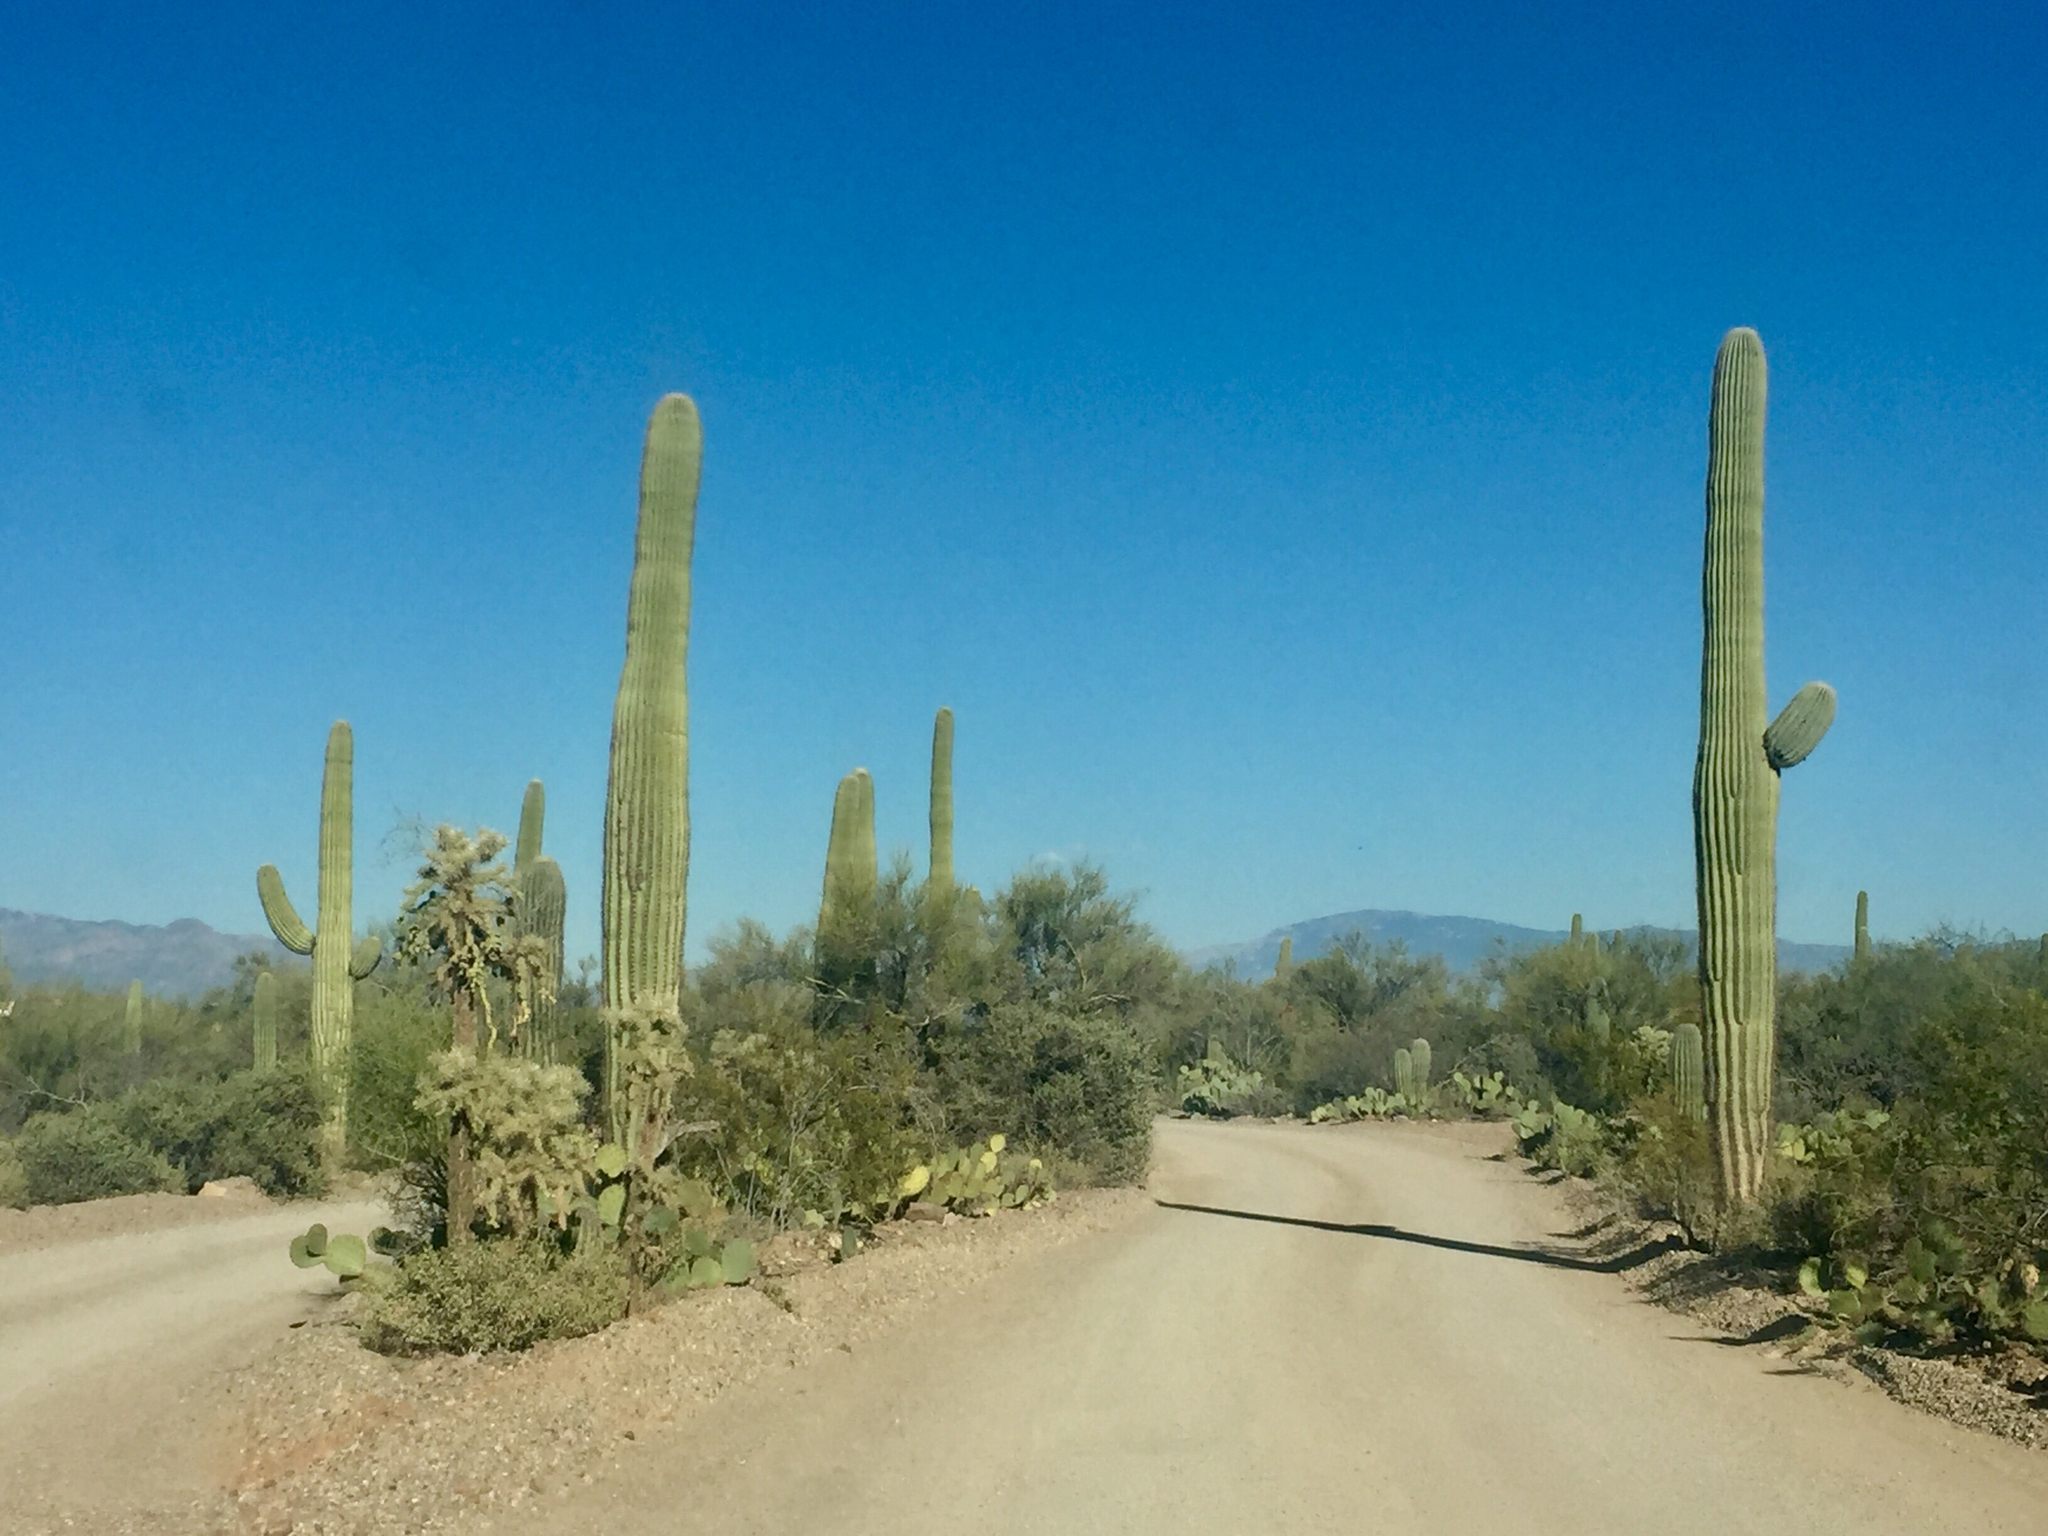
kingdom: Plantae
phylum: Tracheophyta
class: Magnoliopsida
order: Caryophyllales
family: Cactaceae
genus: Carnegiea
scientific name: Carnegiea gigantea
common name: Saguaro
